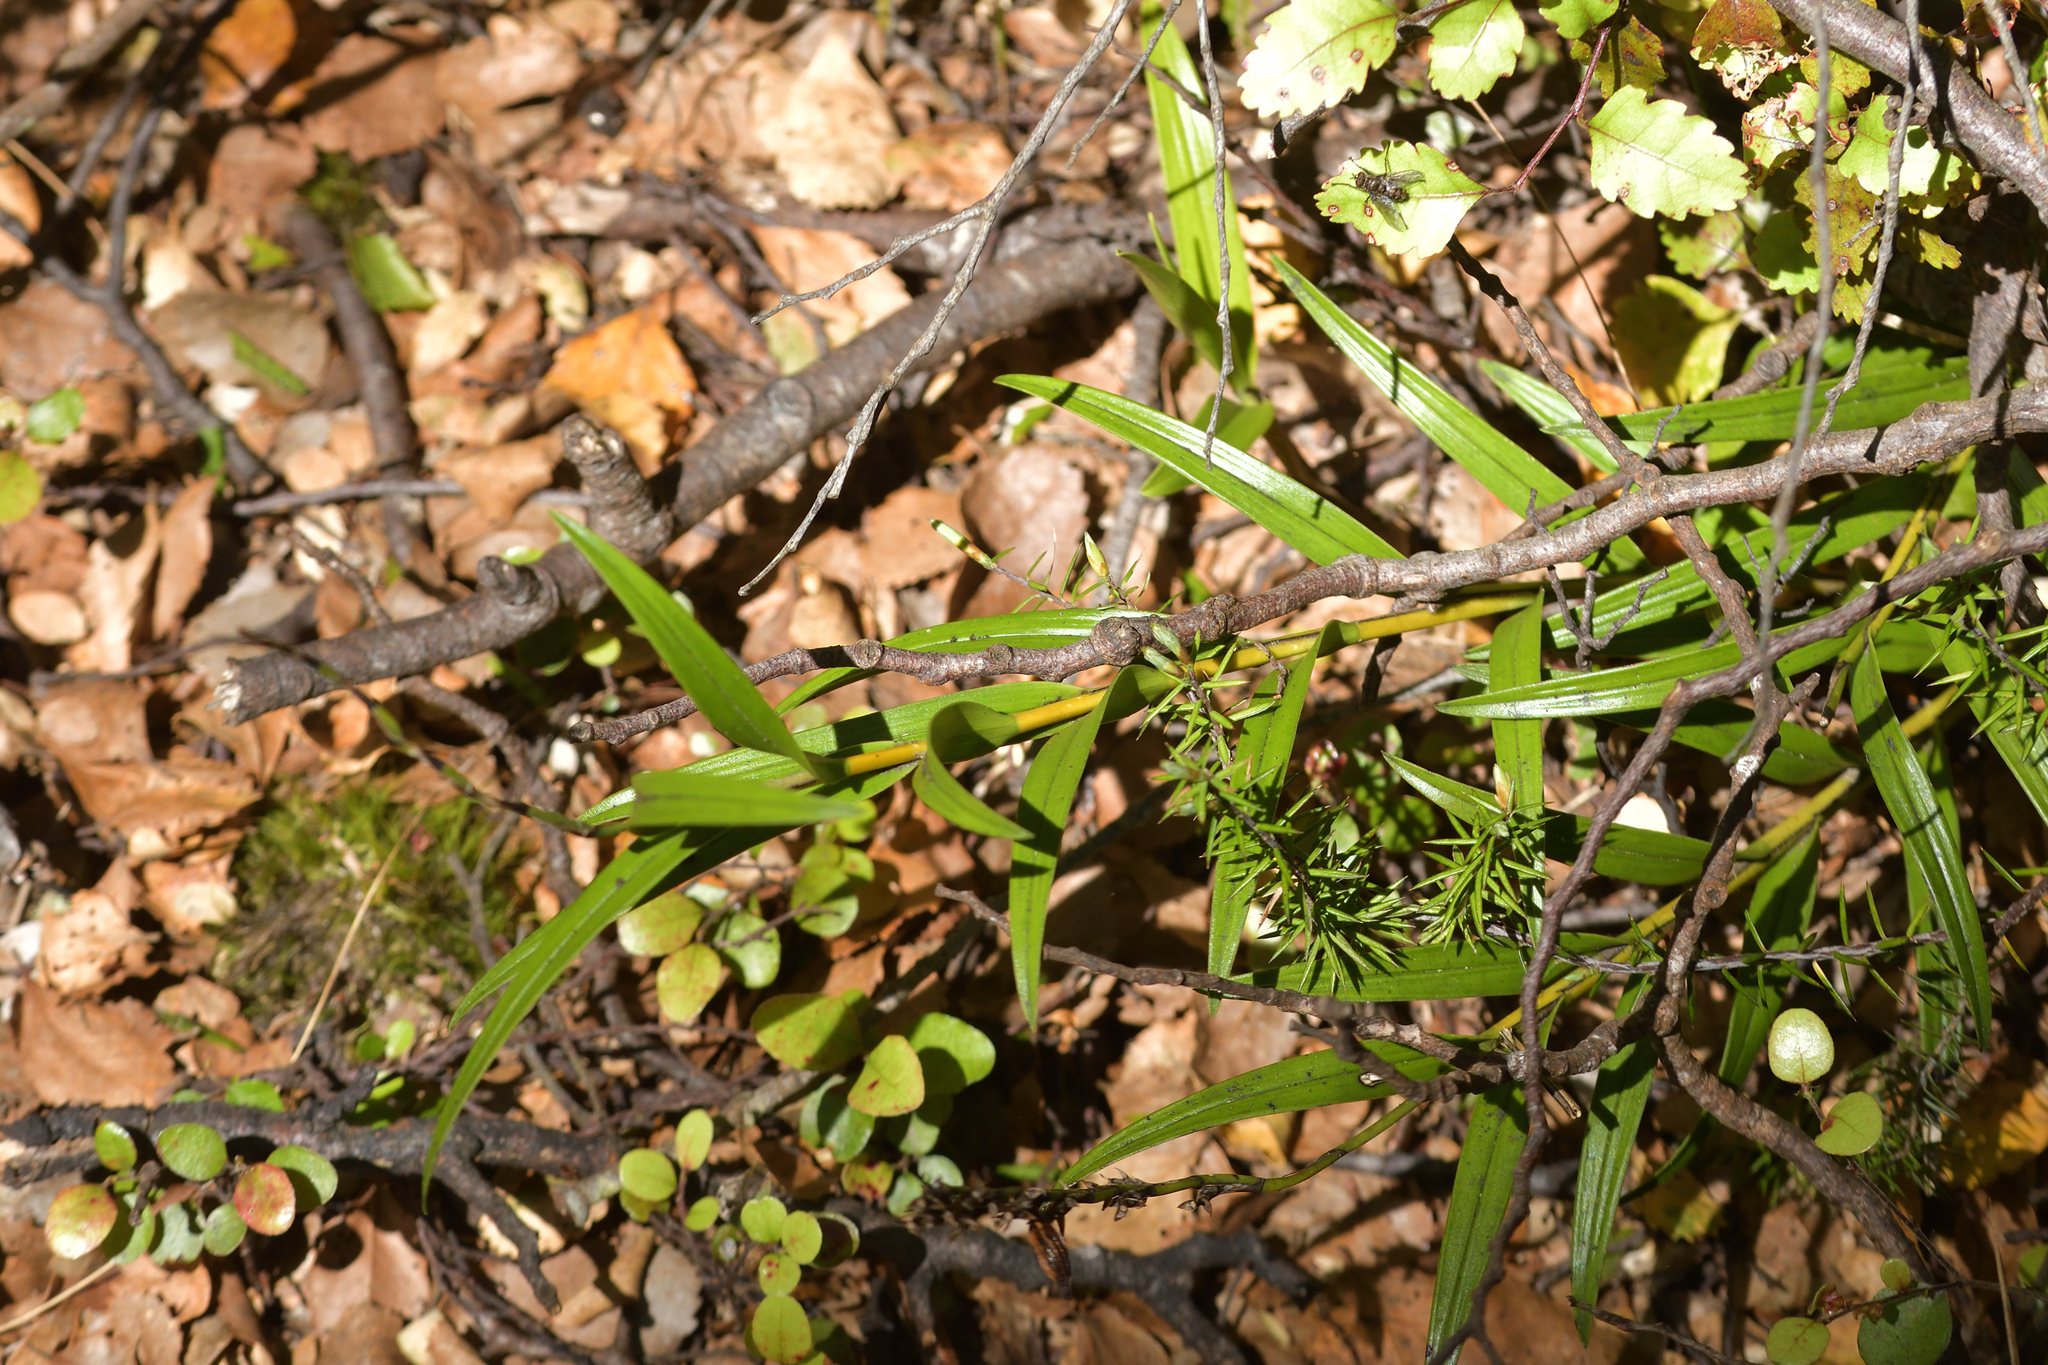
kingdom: Plantae
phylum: Tracheophyta
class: Liliopsida
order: Asparagales
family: Orchidaceae
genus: Earina
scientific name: Earina autumnalis
